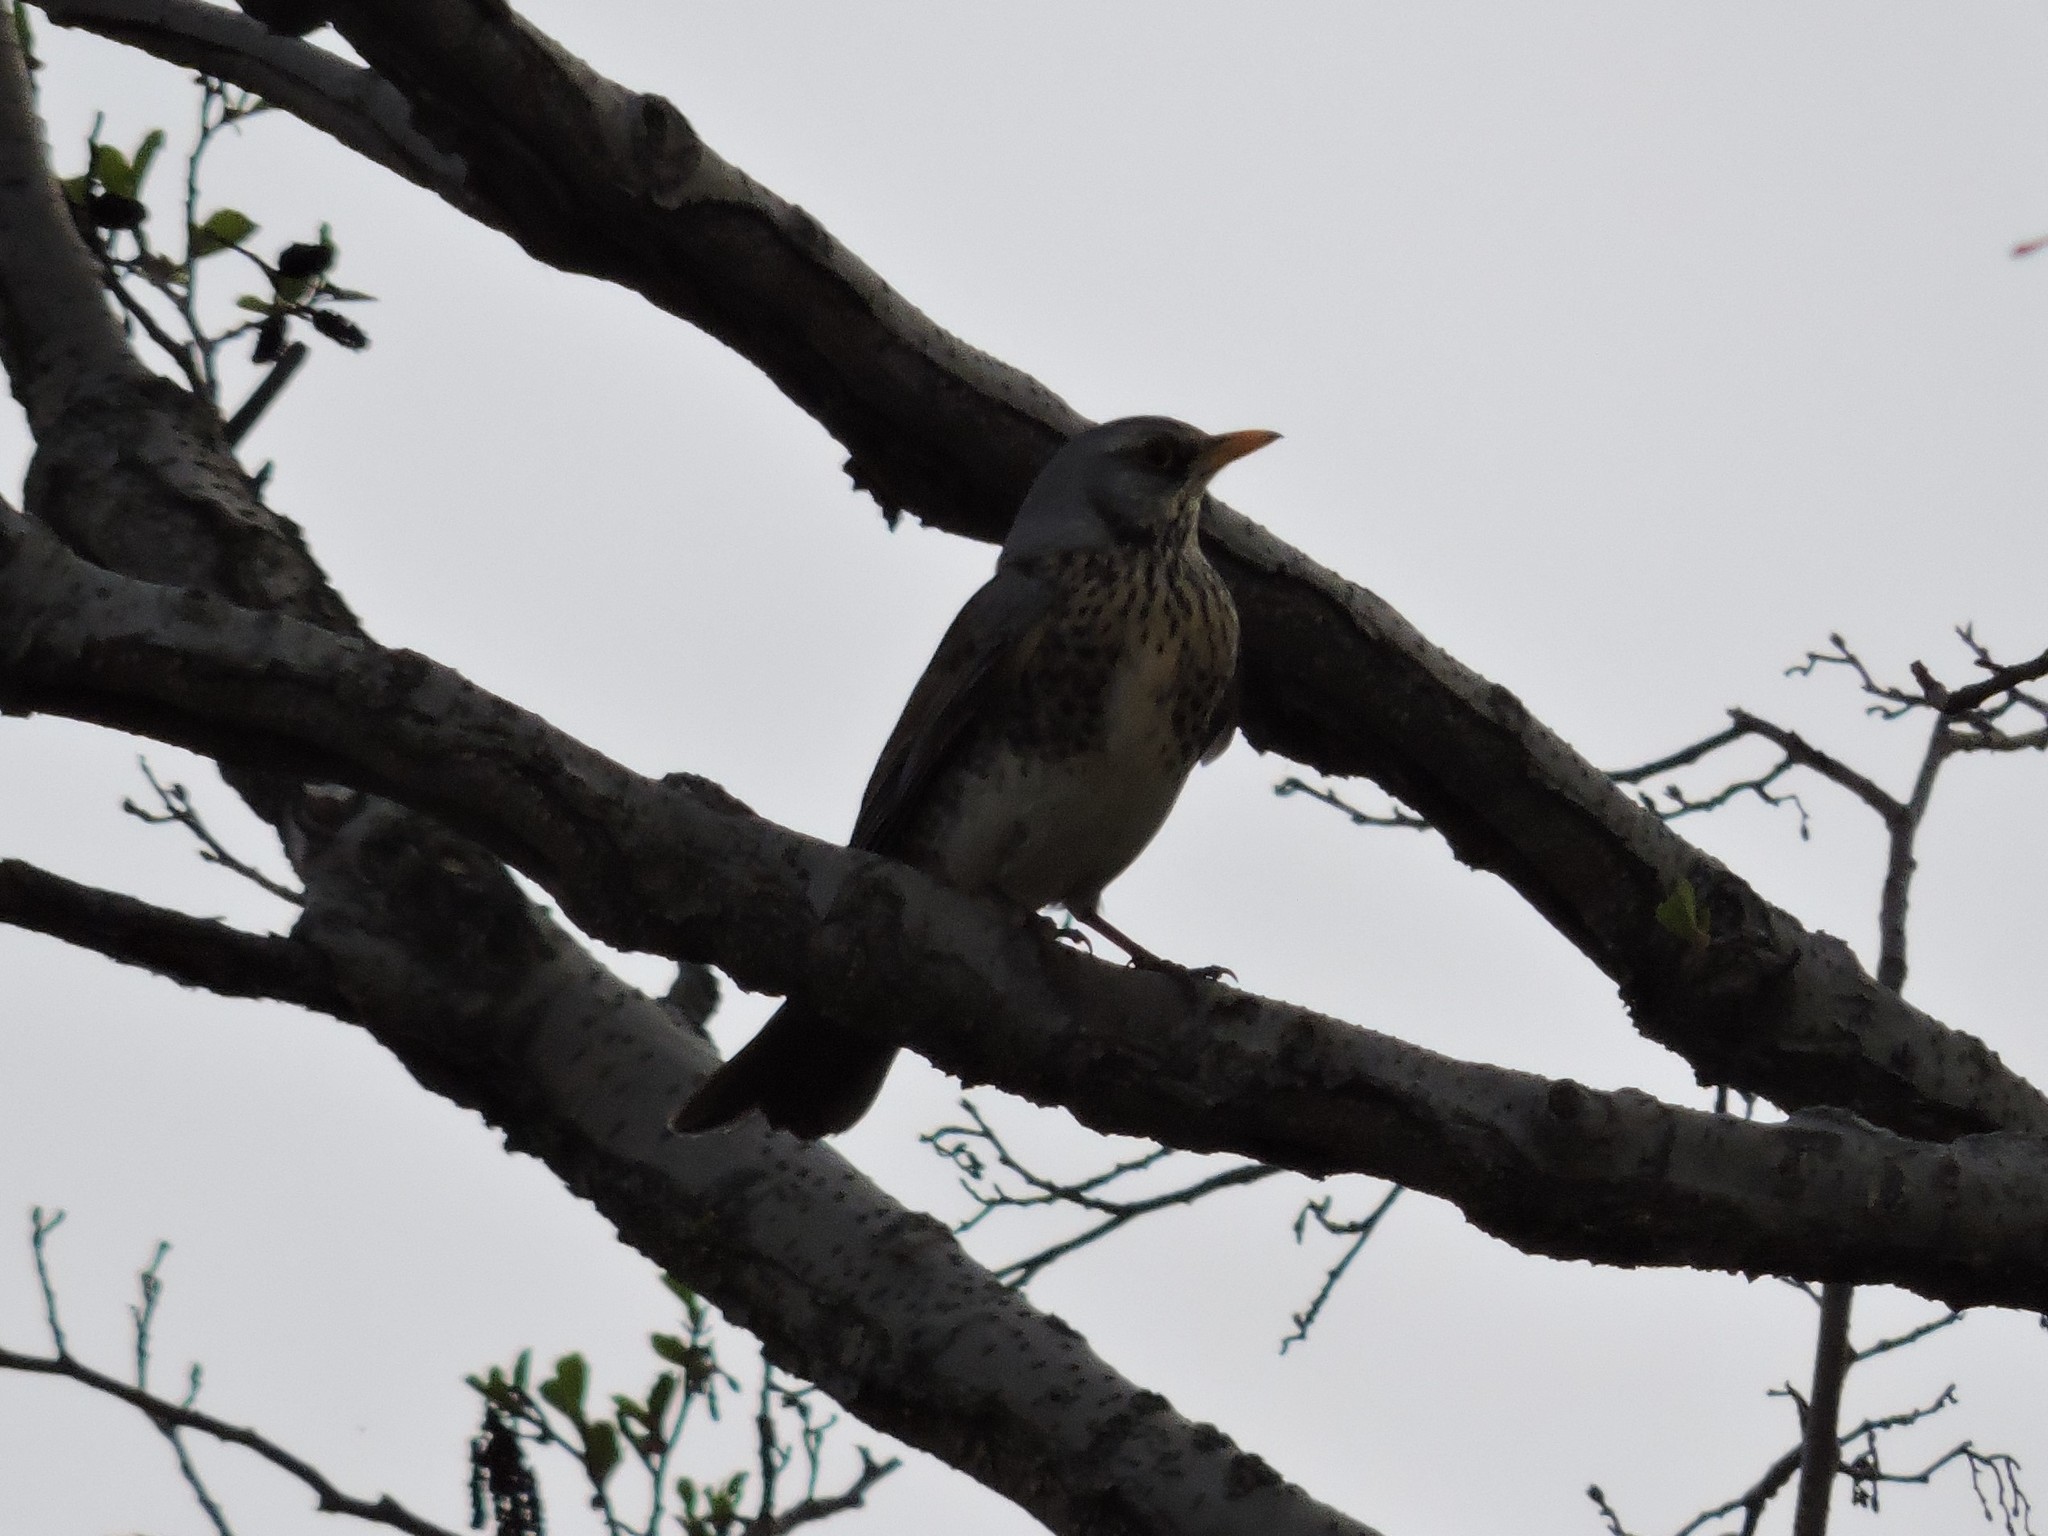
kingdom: Animalia
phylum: Chordata
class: Aves
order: Passeriformes
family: Turdidae
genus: Turdus
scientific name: Turdus pilaris
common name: Fieldfare
